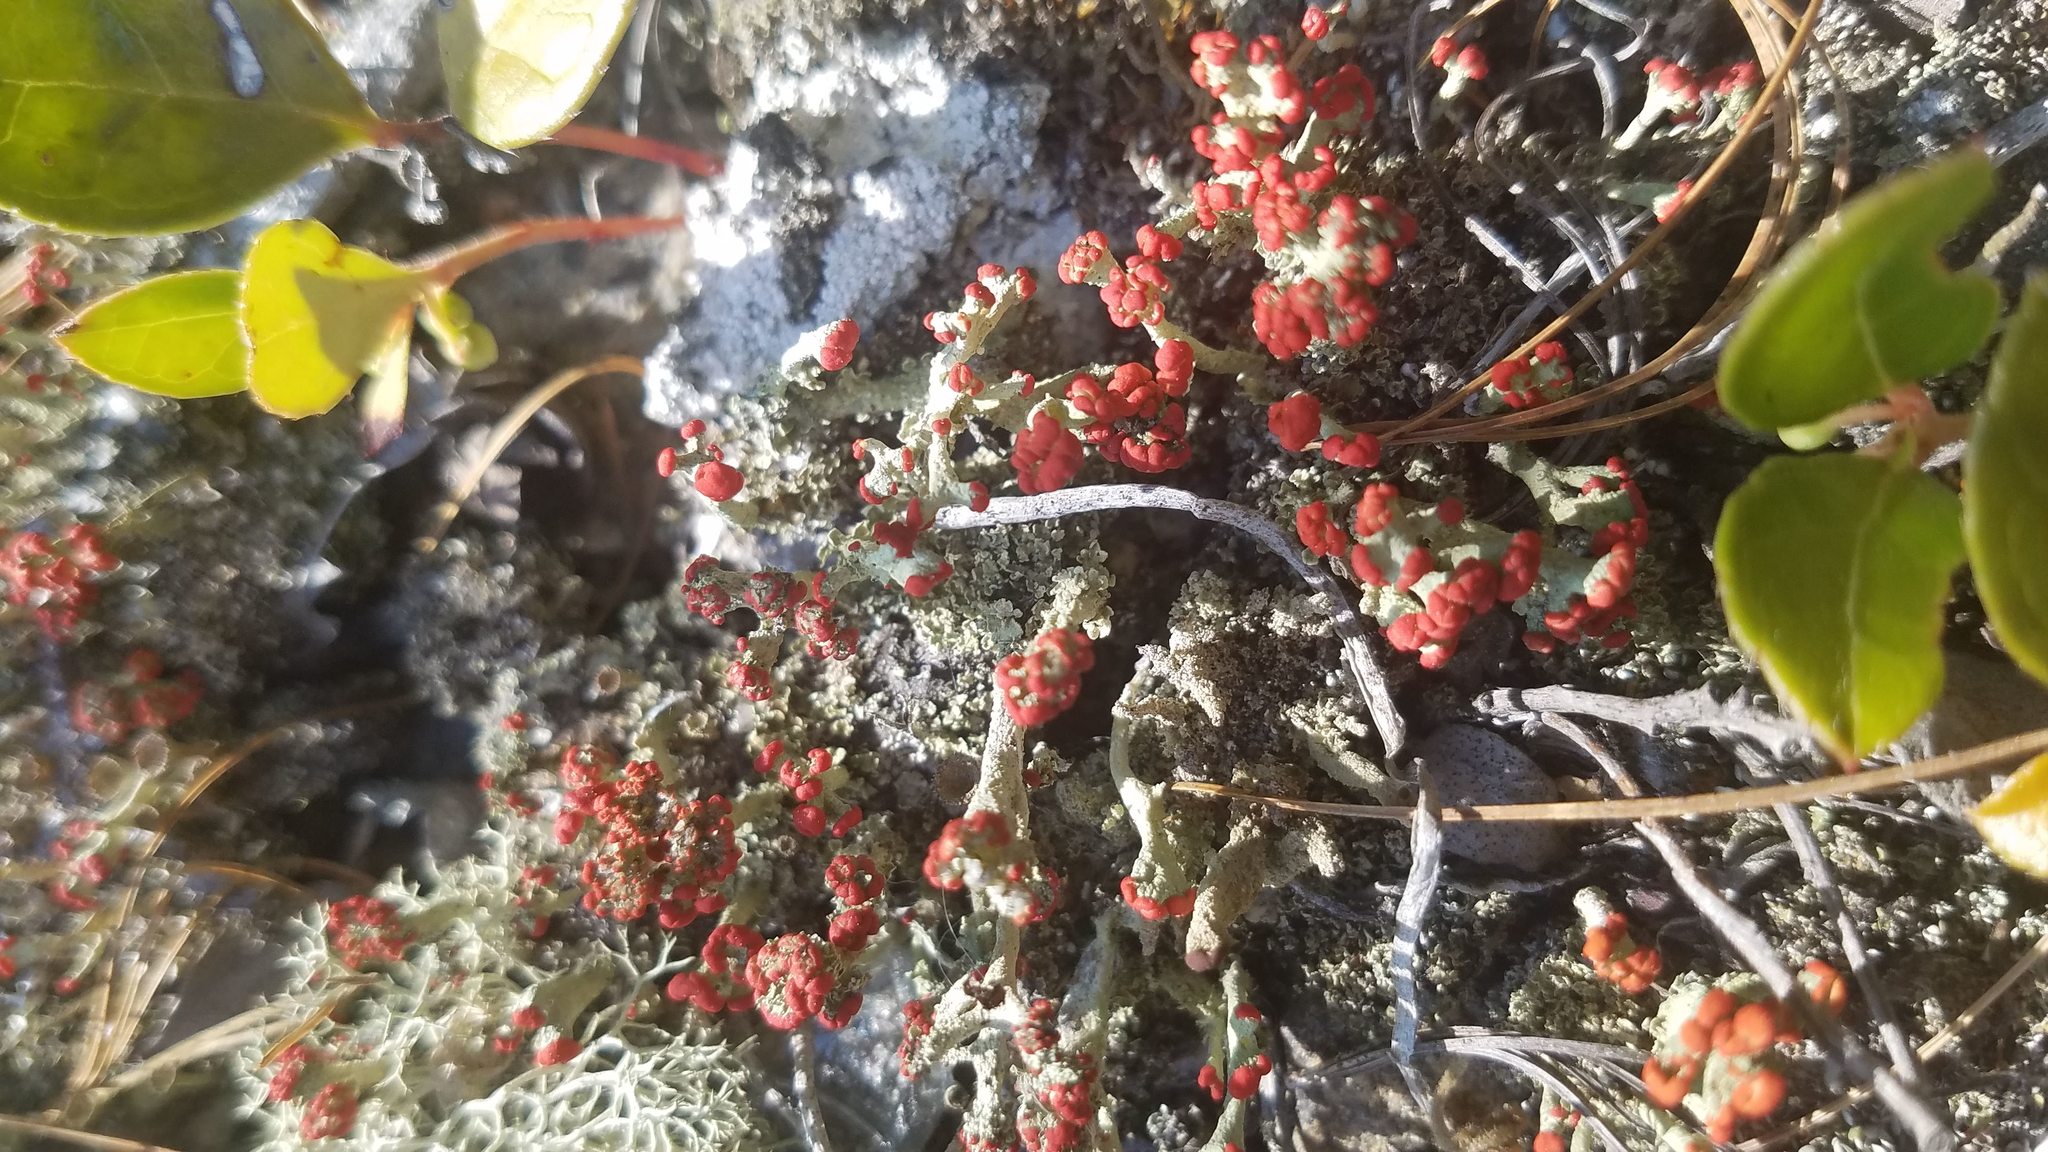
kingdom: Fungi
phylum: Ascomycota
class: Lecanoromycetes
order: Lecanorales
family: Cladoniaceae
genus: Cladonia
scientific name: Cladonia cristatella
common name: British soldier lichen
